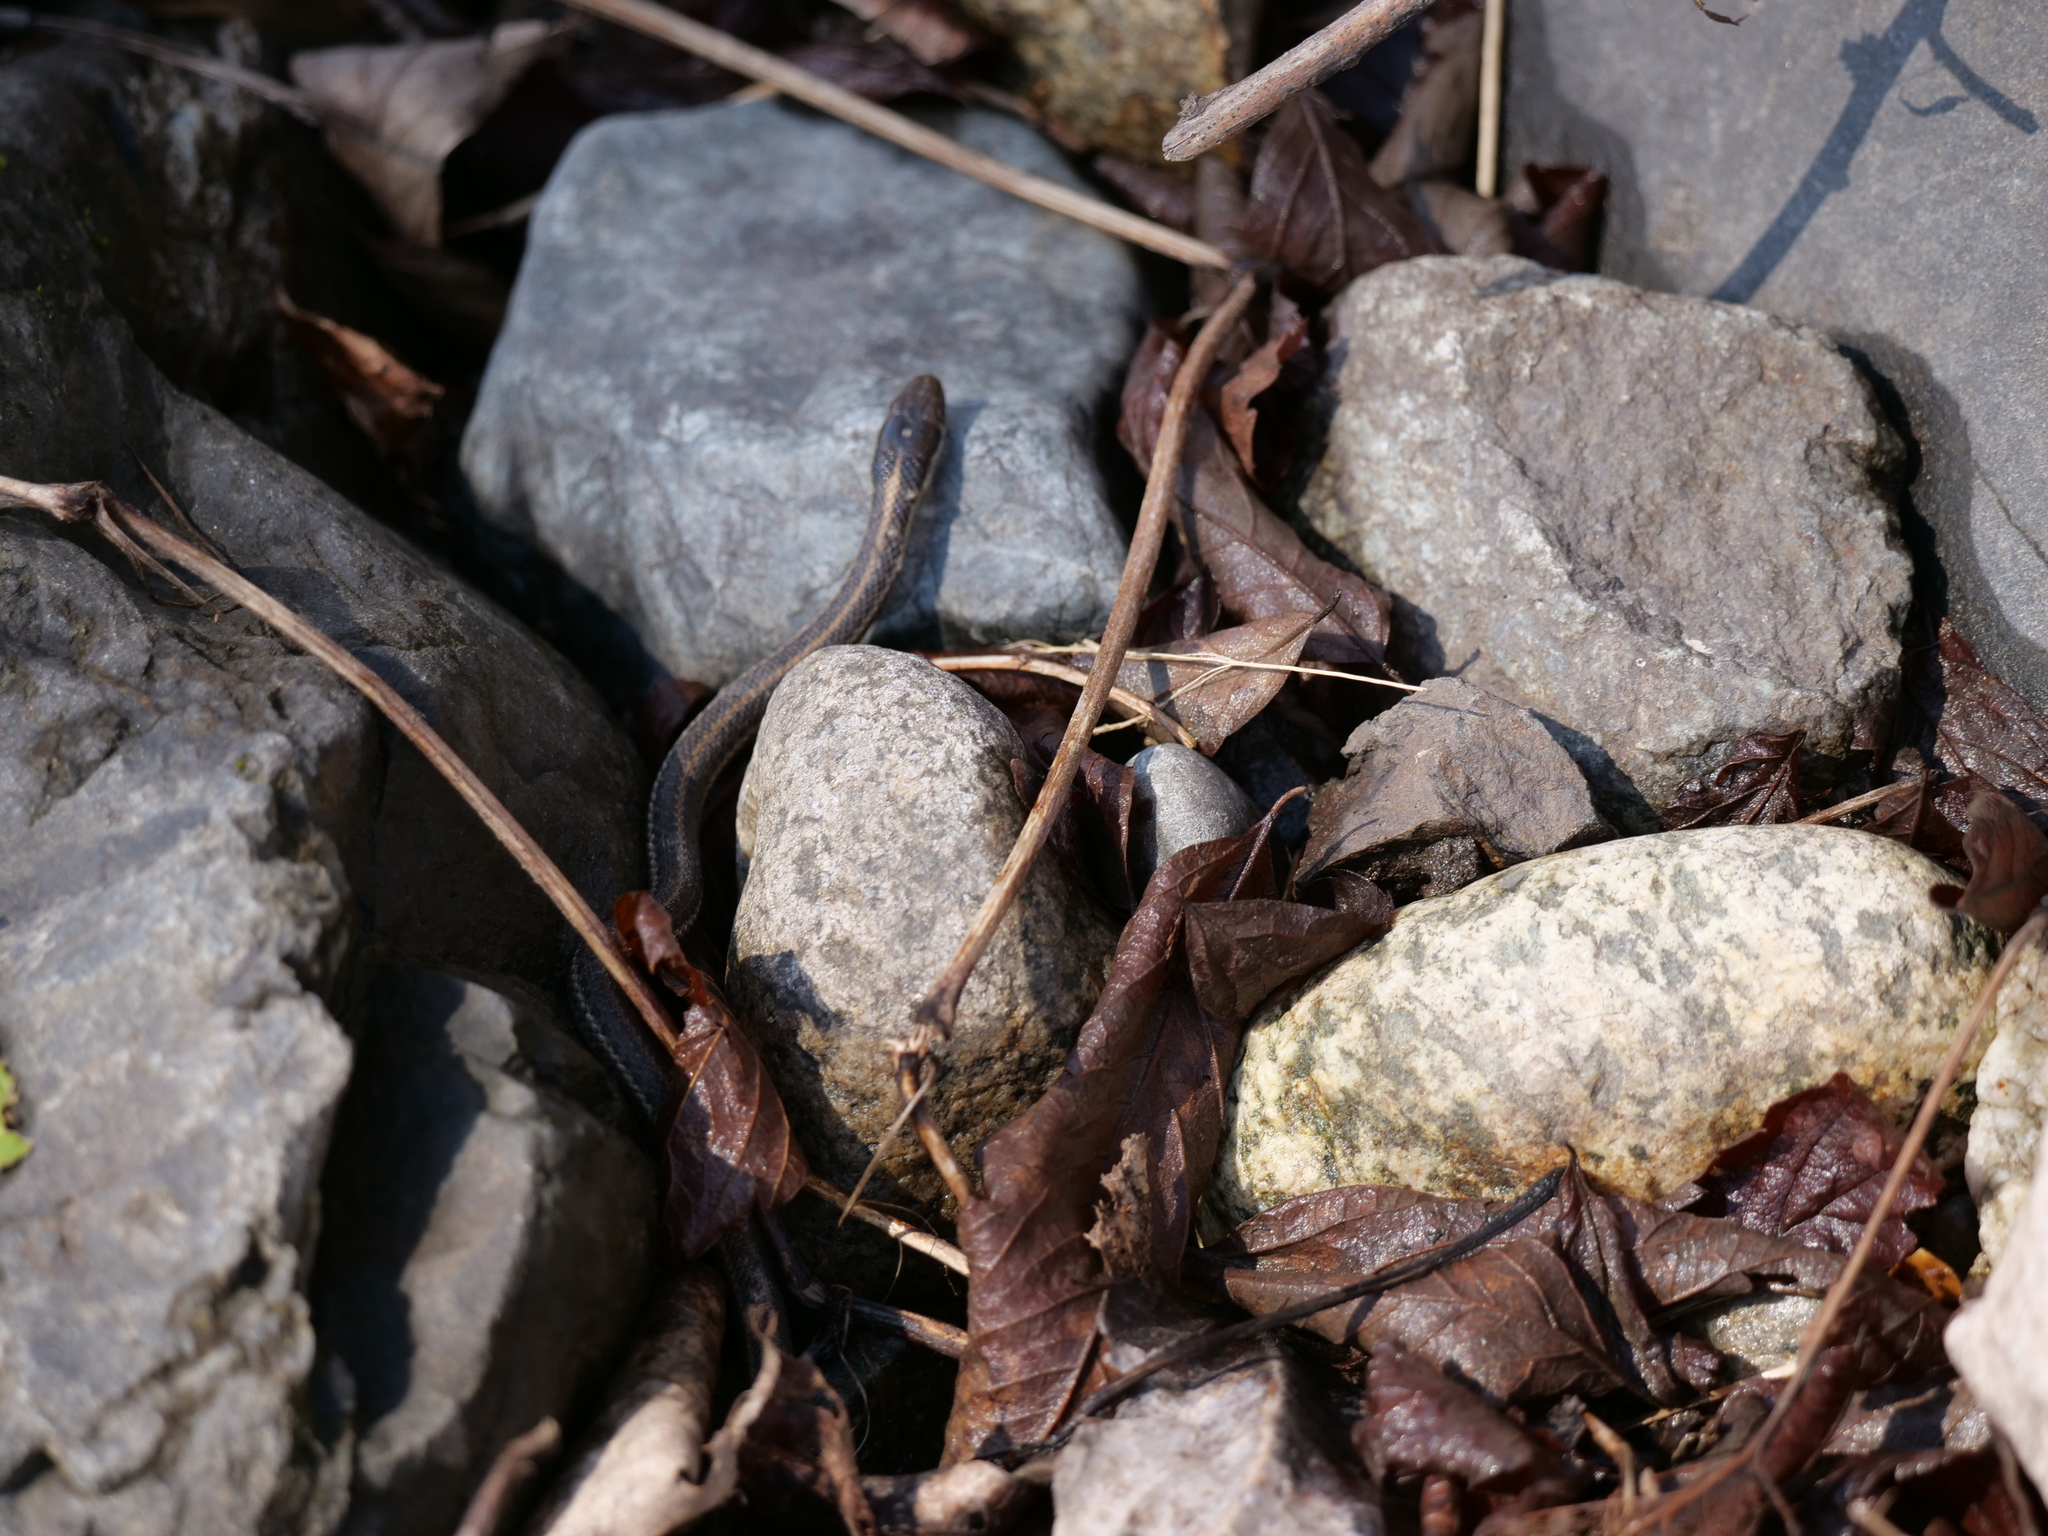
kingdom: Animalia
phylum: Chordata
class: Squamata
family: Colubridae
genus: Thamnophis
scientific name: Thamnophis ordinoides
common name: Northwestern garter snake
